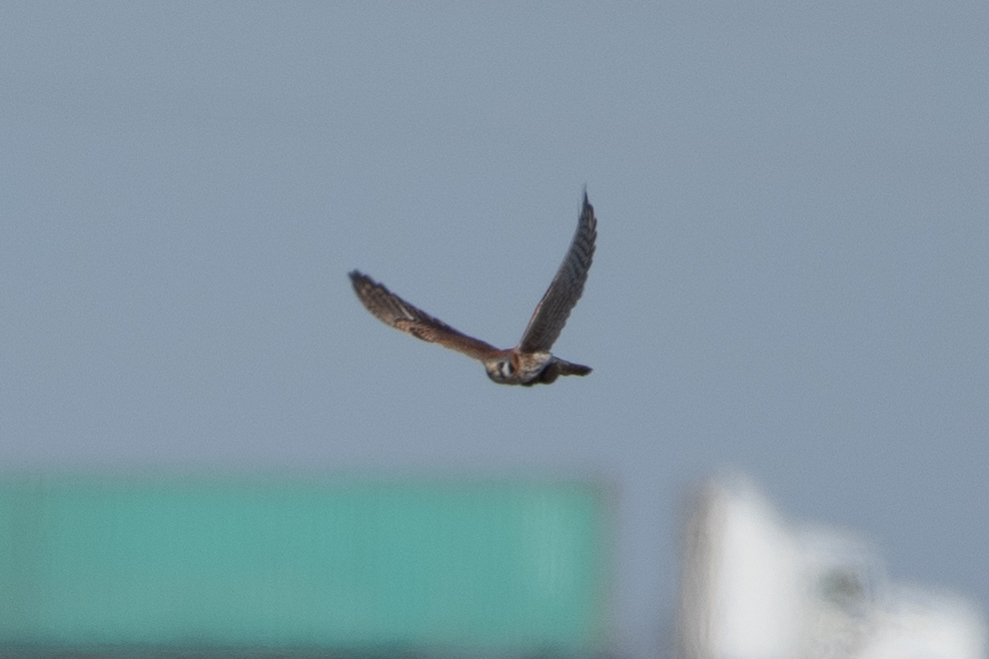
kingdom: Animalia
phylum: Chordata
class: Aves
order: Falconiformes
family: Falconidae
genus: Falco
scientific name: Falco sparverius
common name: American kestrel
